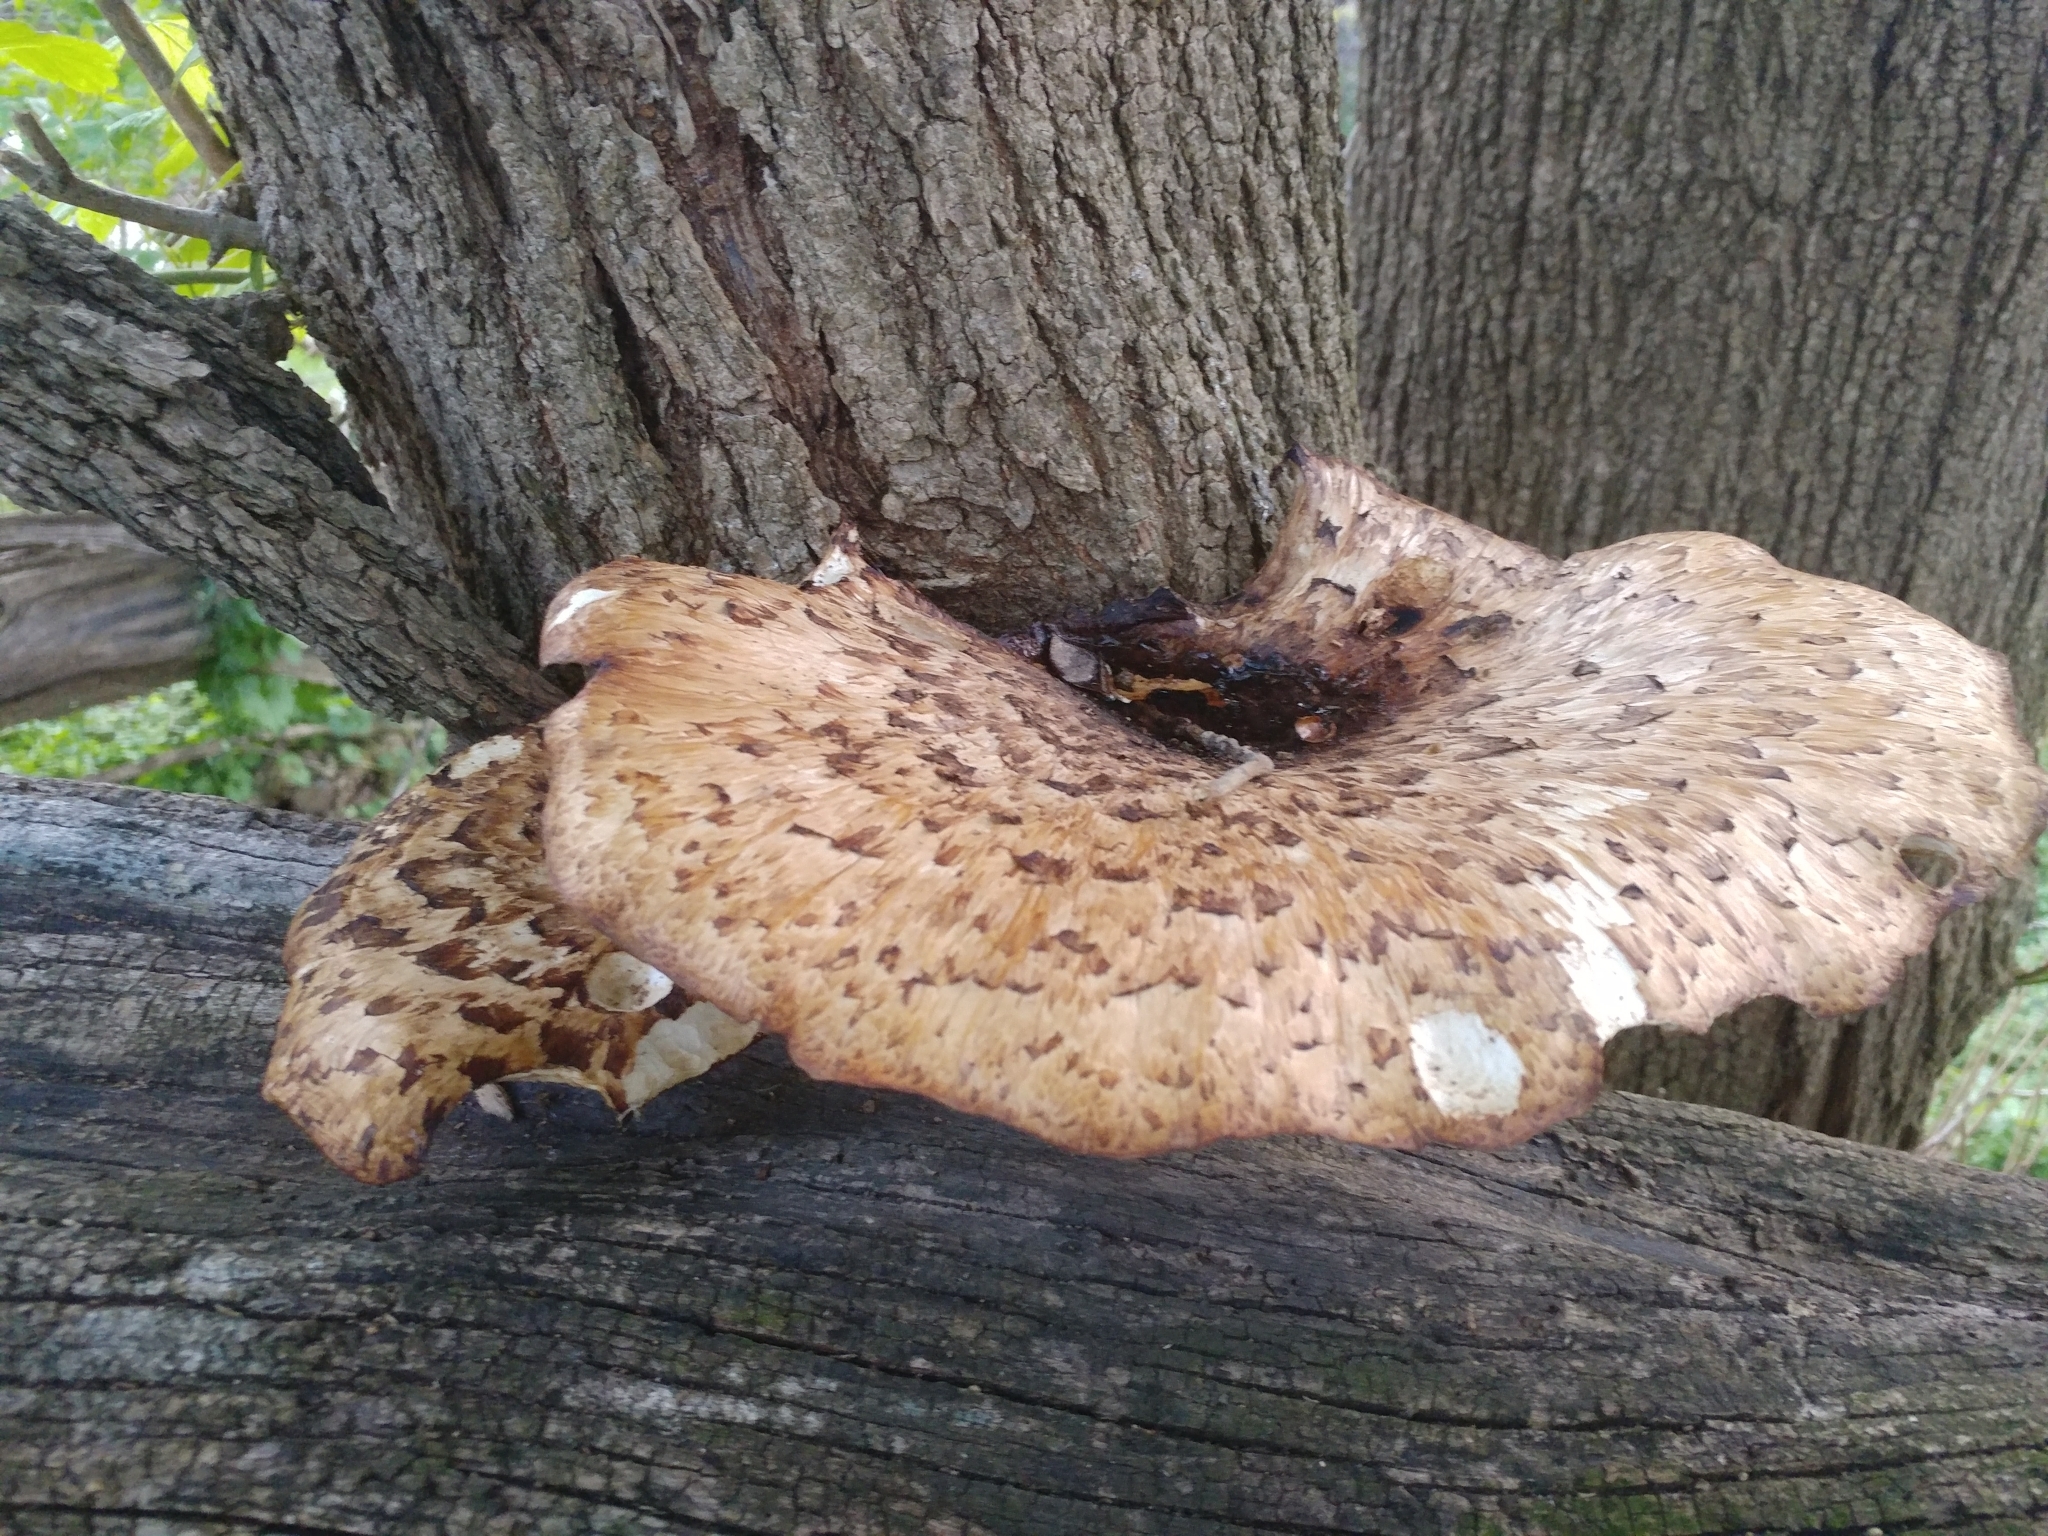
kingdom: Fungi
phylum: Basidiomycota
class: Agaricomycetes
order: Polyporales
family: Polyporaceae
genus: Cerioporus
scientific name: Cerioporus squamosus
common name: Dryad's saddle
